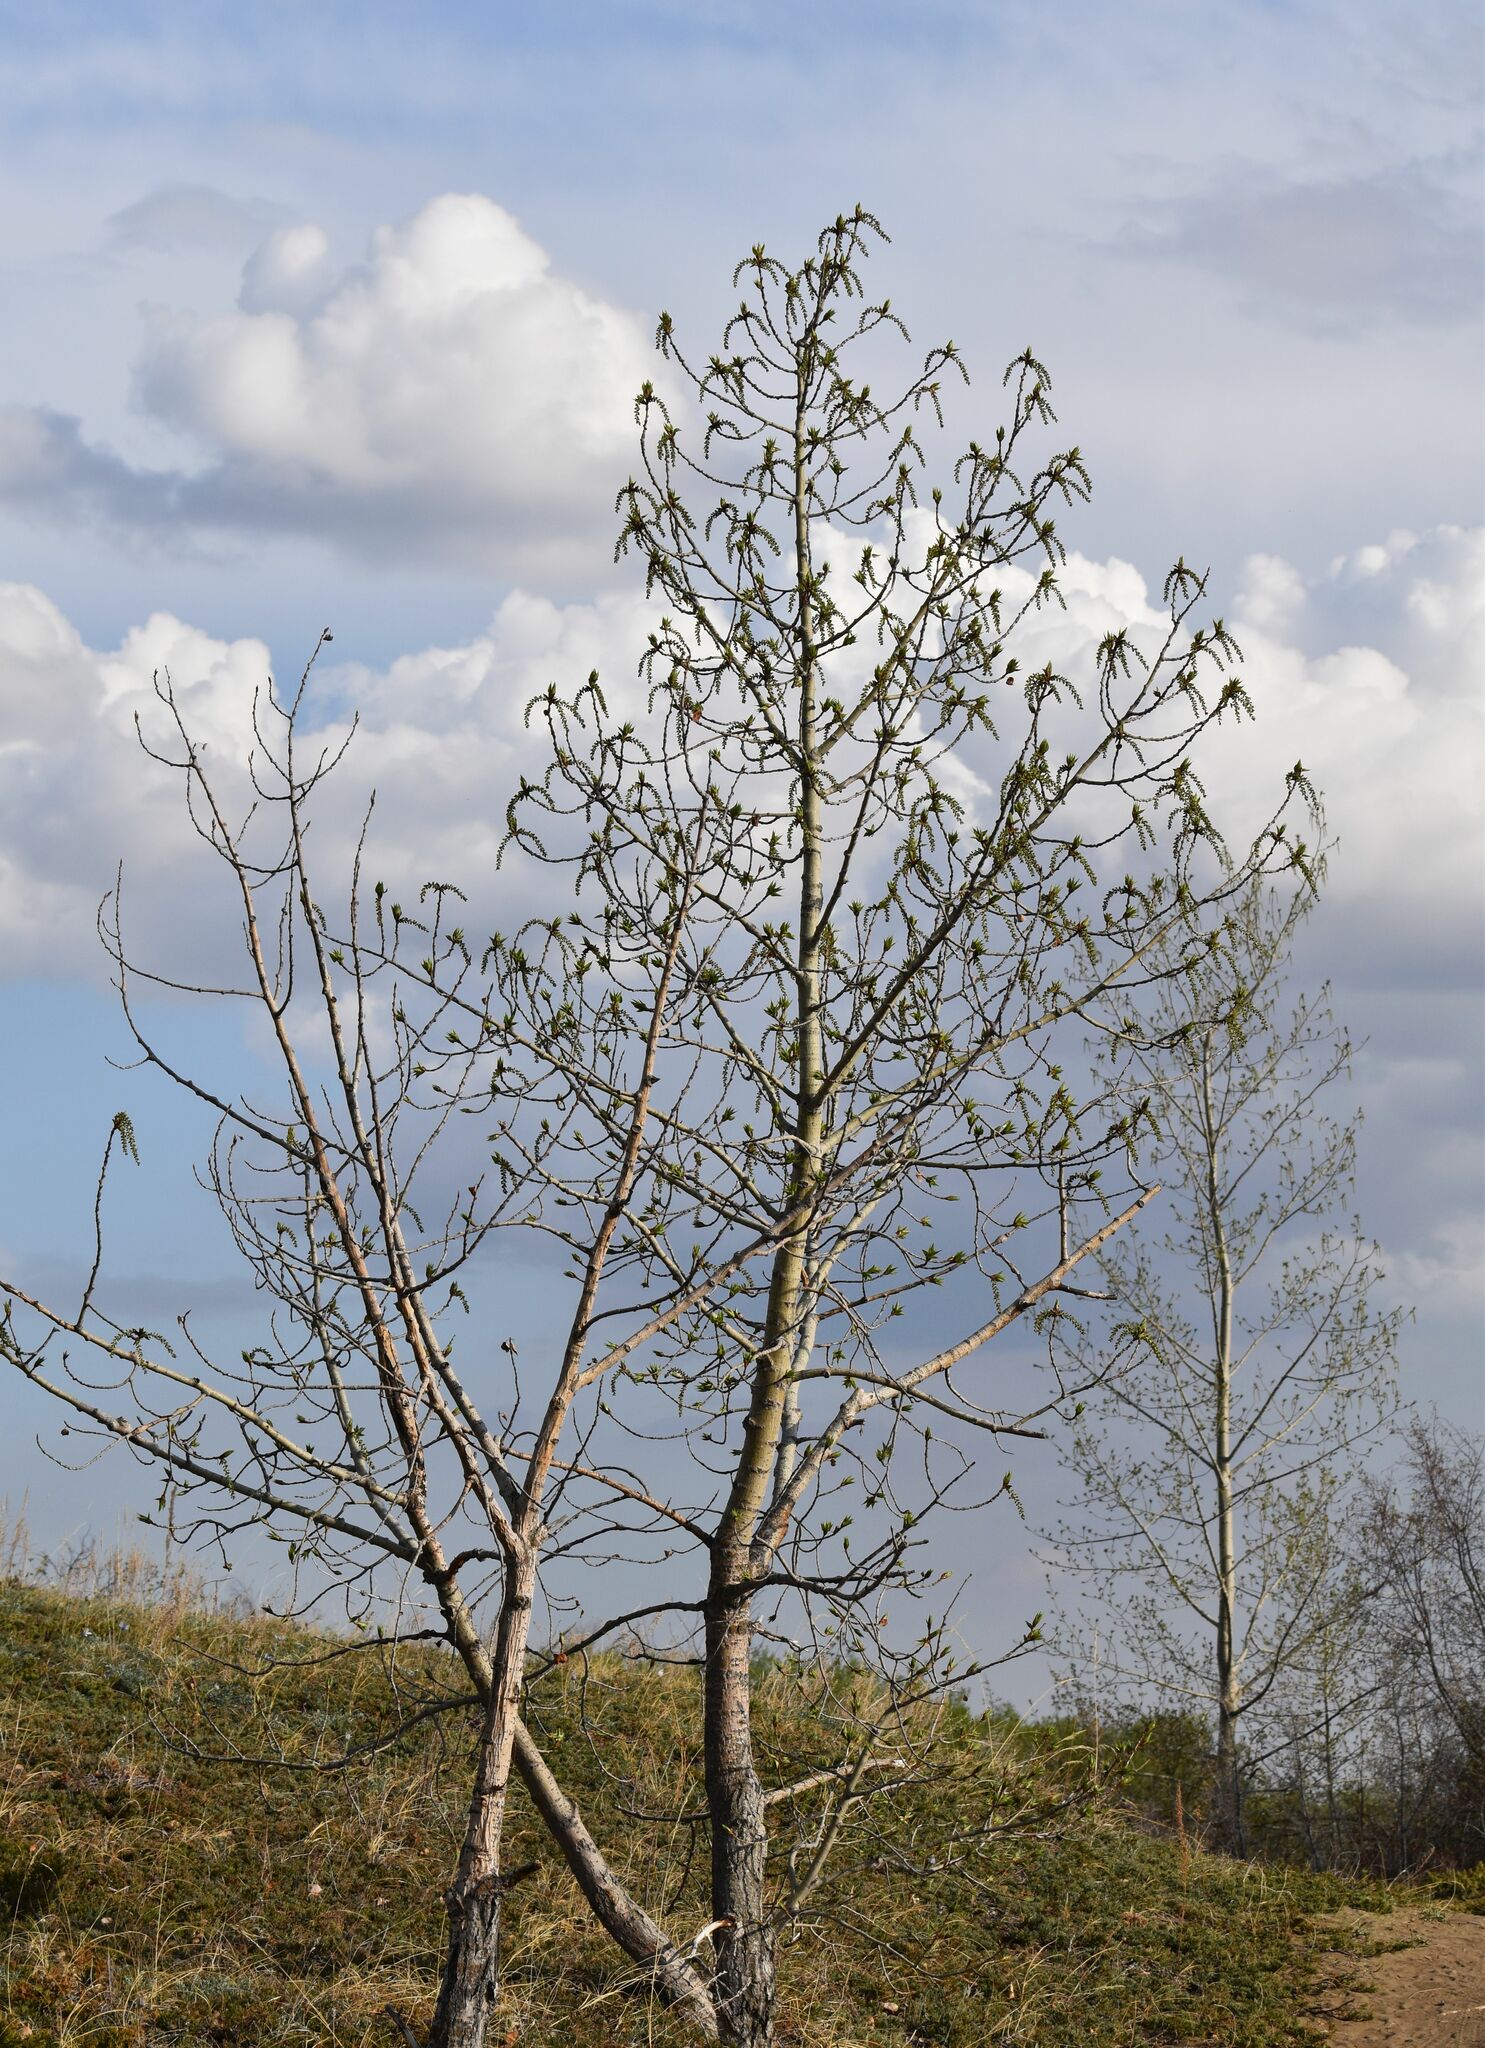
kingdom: Plantae
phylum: Tracheophyta
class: Magnoliopsida
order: Malpighiales
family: Salicaceae
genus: Populus
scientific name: Populus deltoides
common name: Eastern cottonwood
